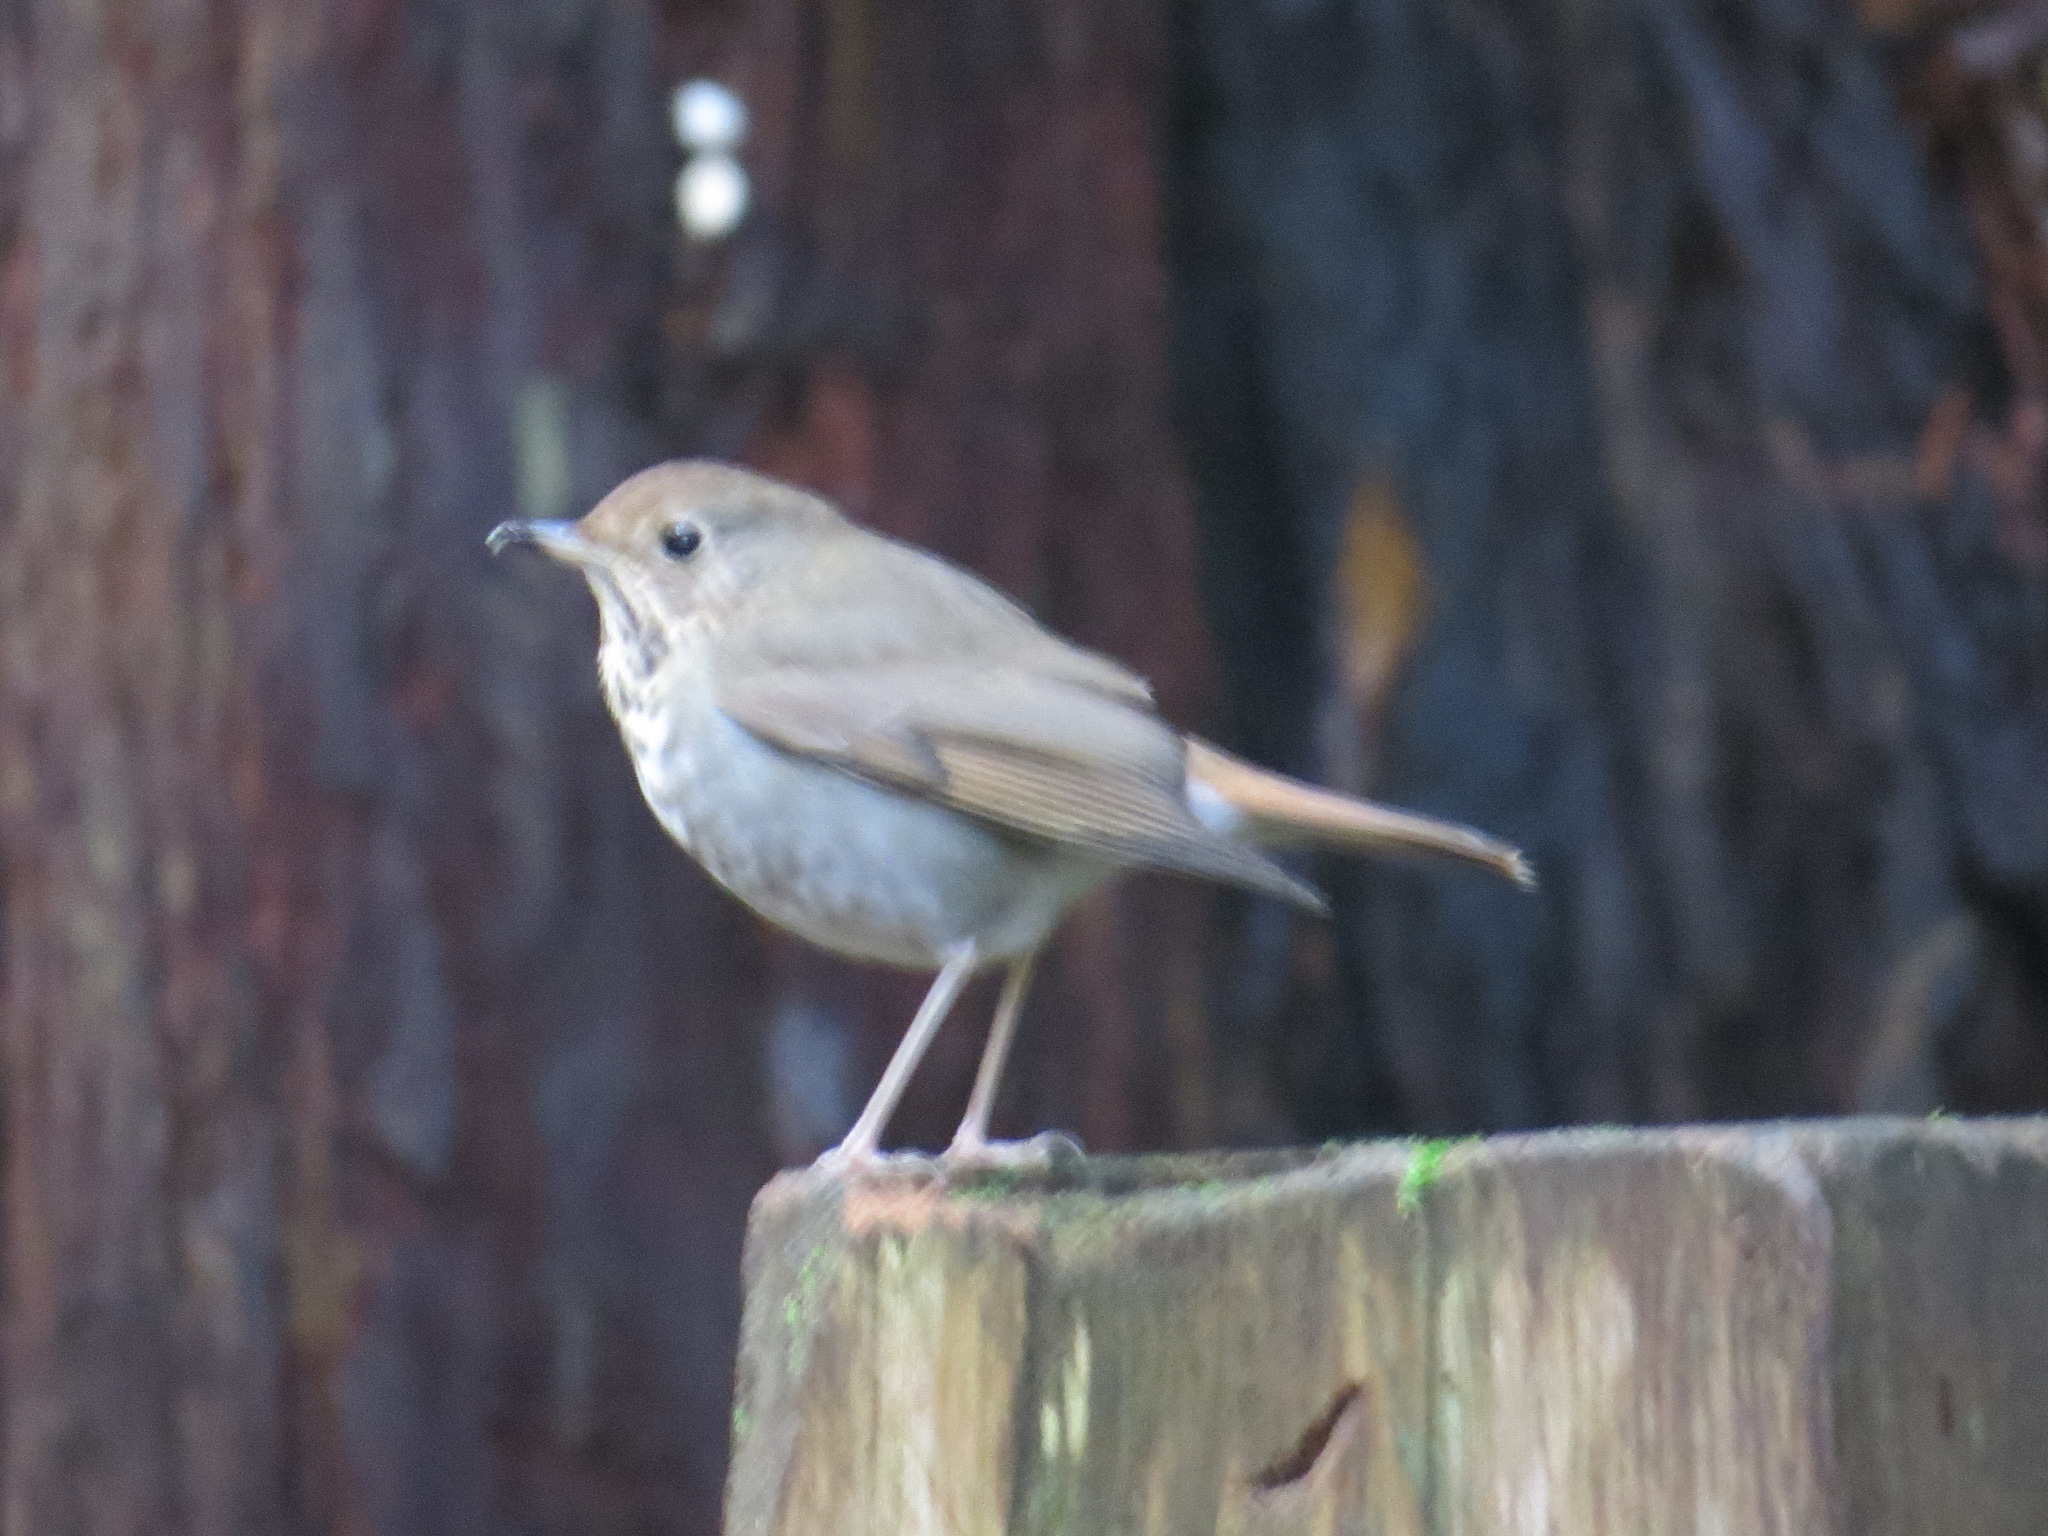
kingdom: Animalia
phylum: Chordata
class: Aves
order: Passeriformes
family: Turdidae
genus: Catharus
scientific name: Catharus guttatus
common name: Hermit thrush
